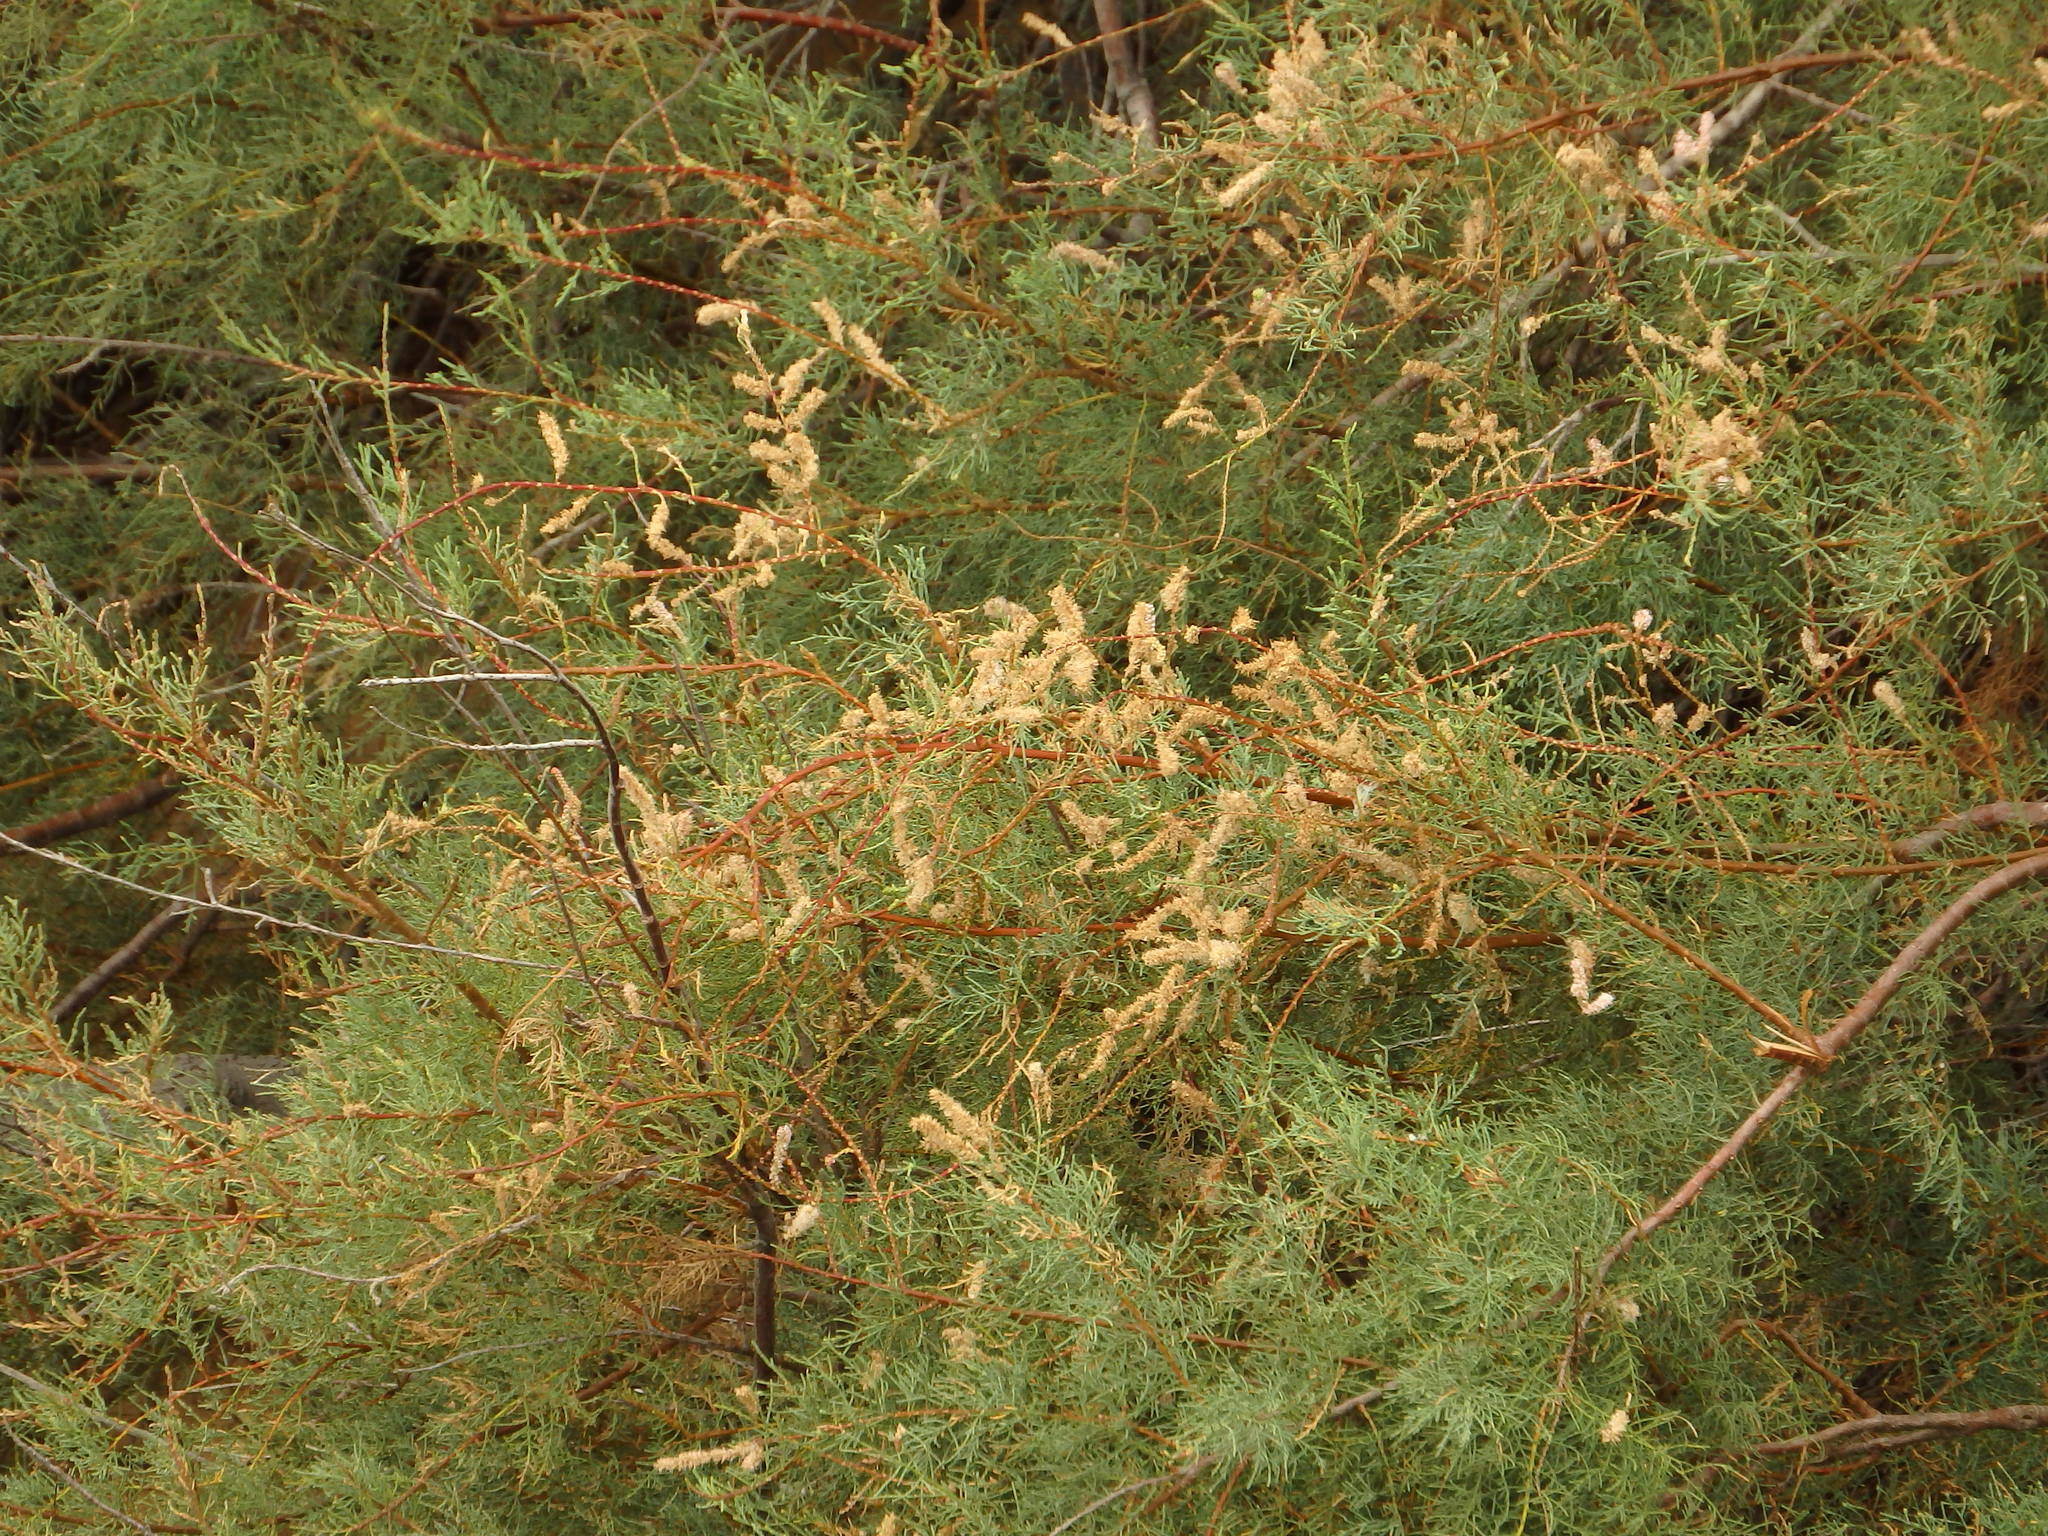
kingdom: Plantae
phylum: Tracheophyta
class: Magnoliopsida
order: Caryophyllales
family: Tamaricaceae
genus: Tamarix
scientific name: Tamarix gallica
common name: Tamarisk
